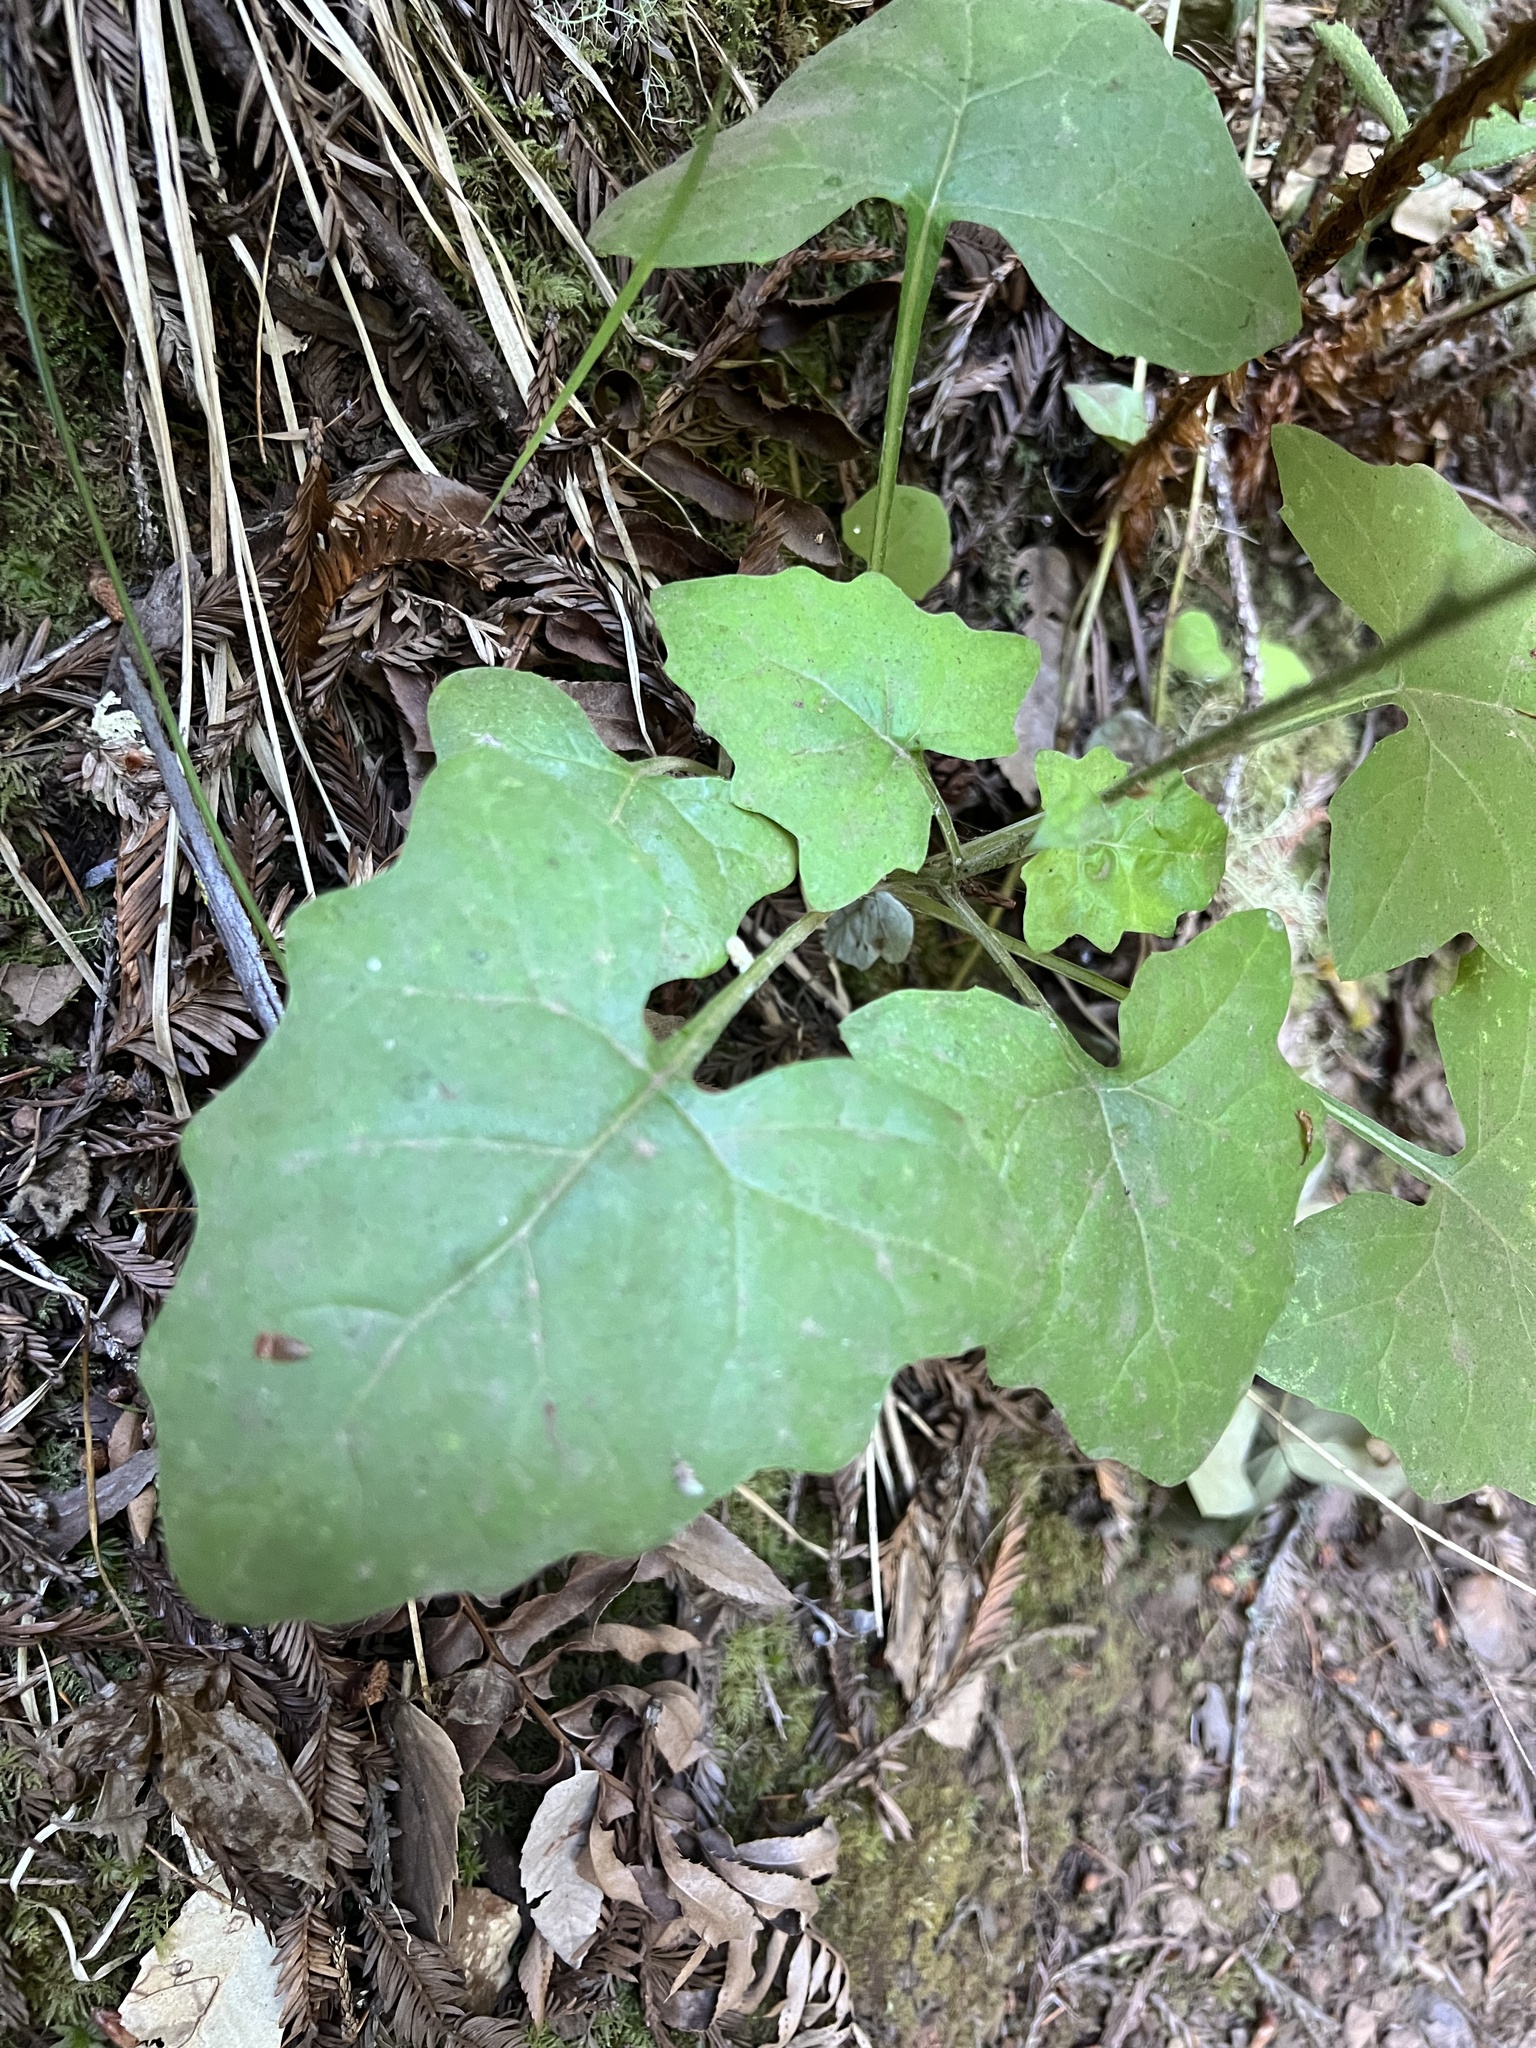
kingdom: Plantae
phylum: Tracheophyta
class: Magnoliopsida
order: Asterales
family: Asteraceae
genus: Adenocaulon
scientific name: Adenocaulon bicolor
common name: Trailplant
